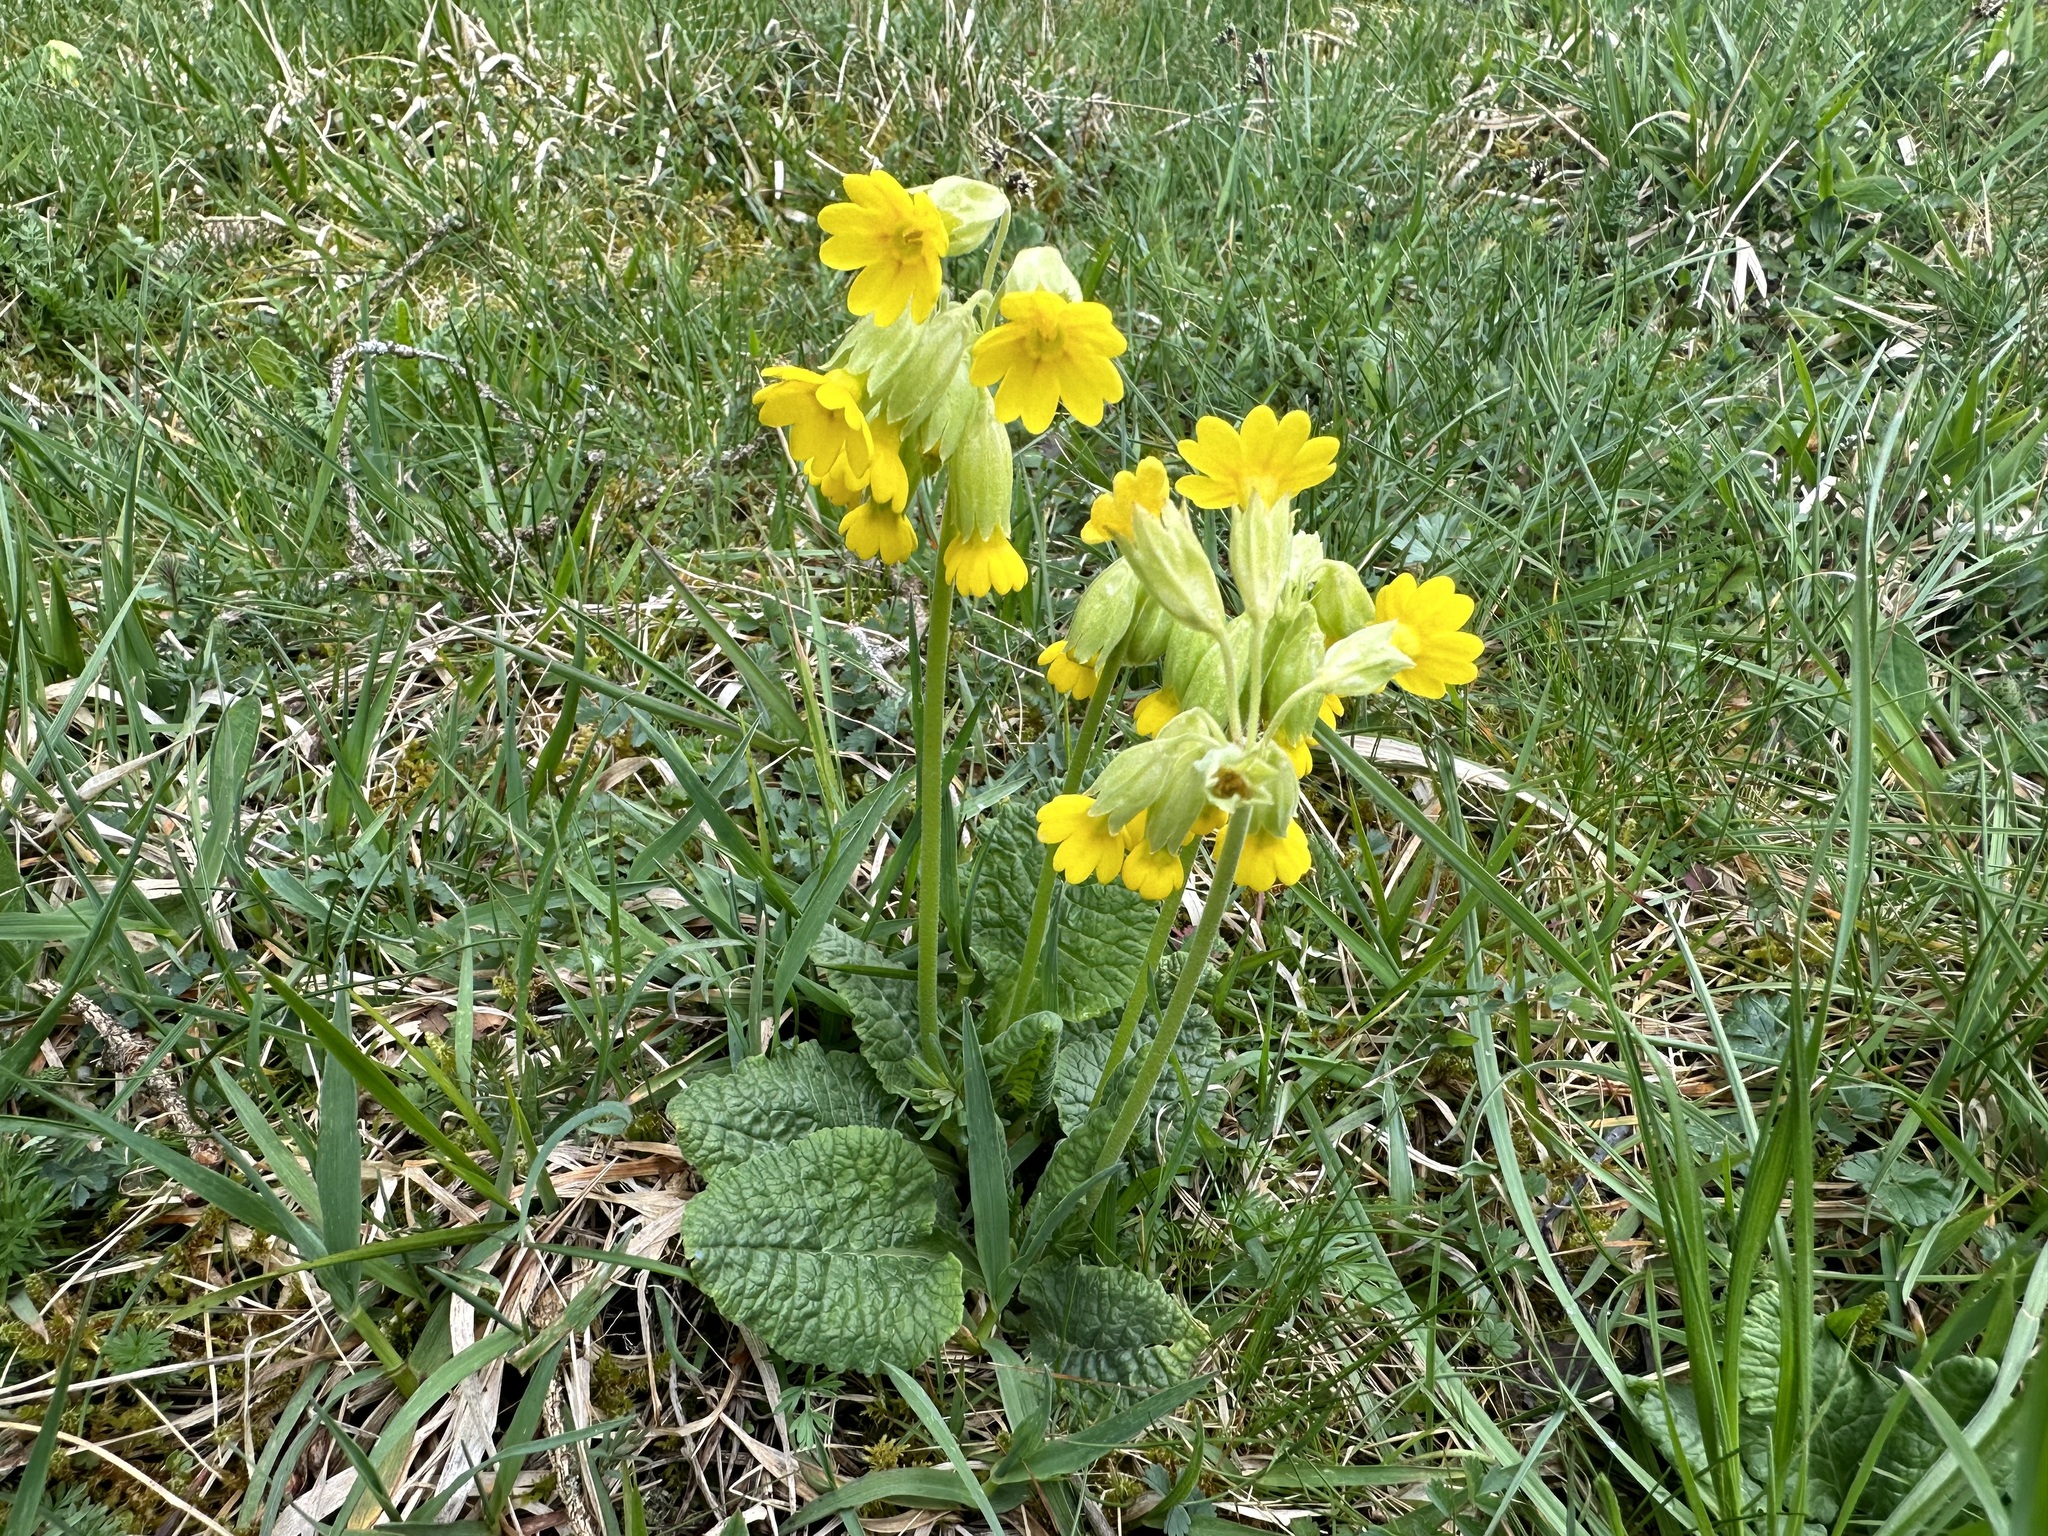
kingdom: Plantae
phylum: Tracheophyta
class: Magnoliopsida
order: Ericales
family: Primulaceae
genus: Primula
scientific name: Primula veris
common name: Cowslip
